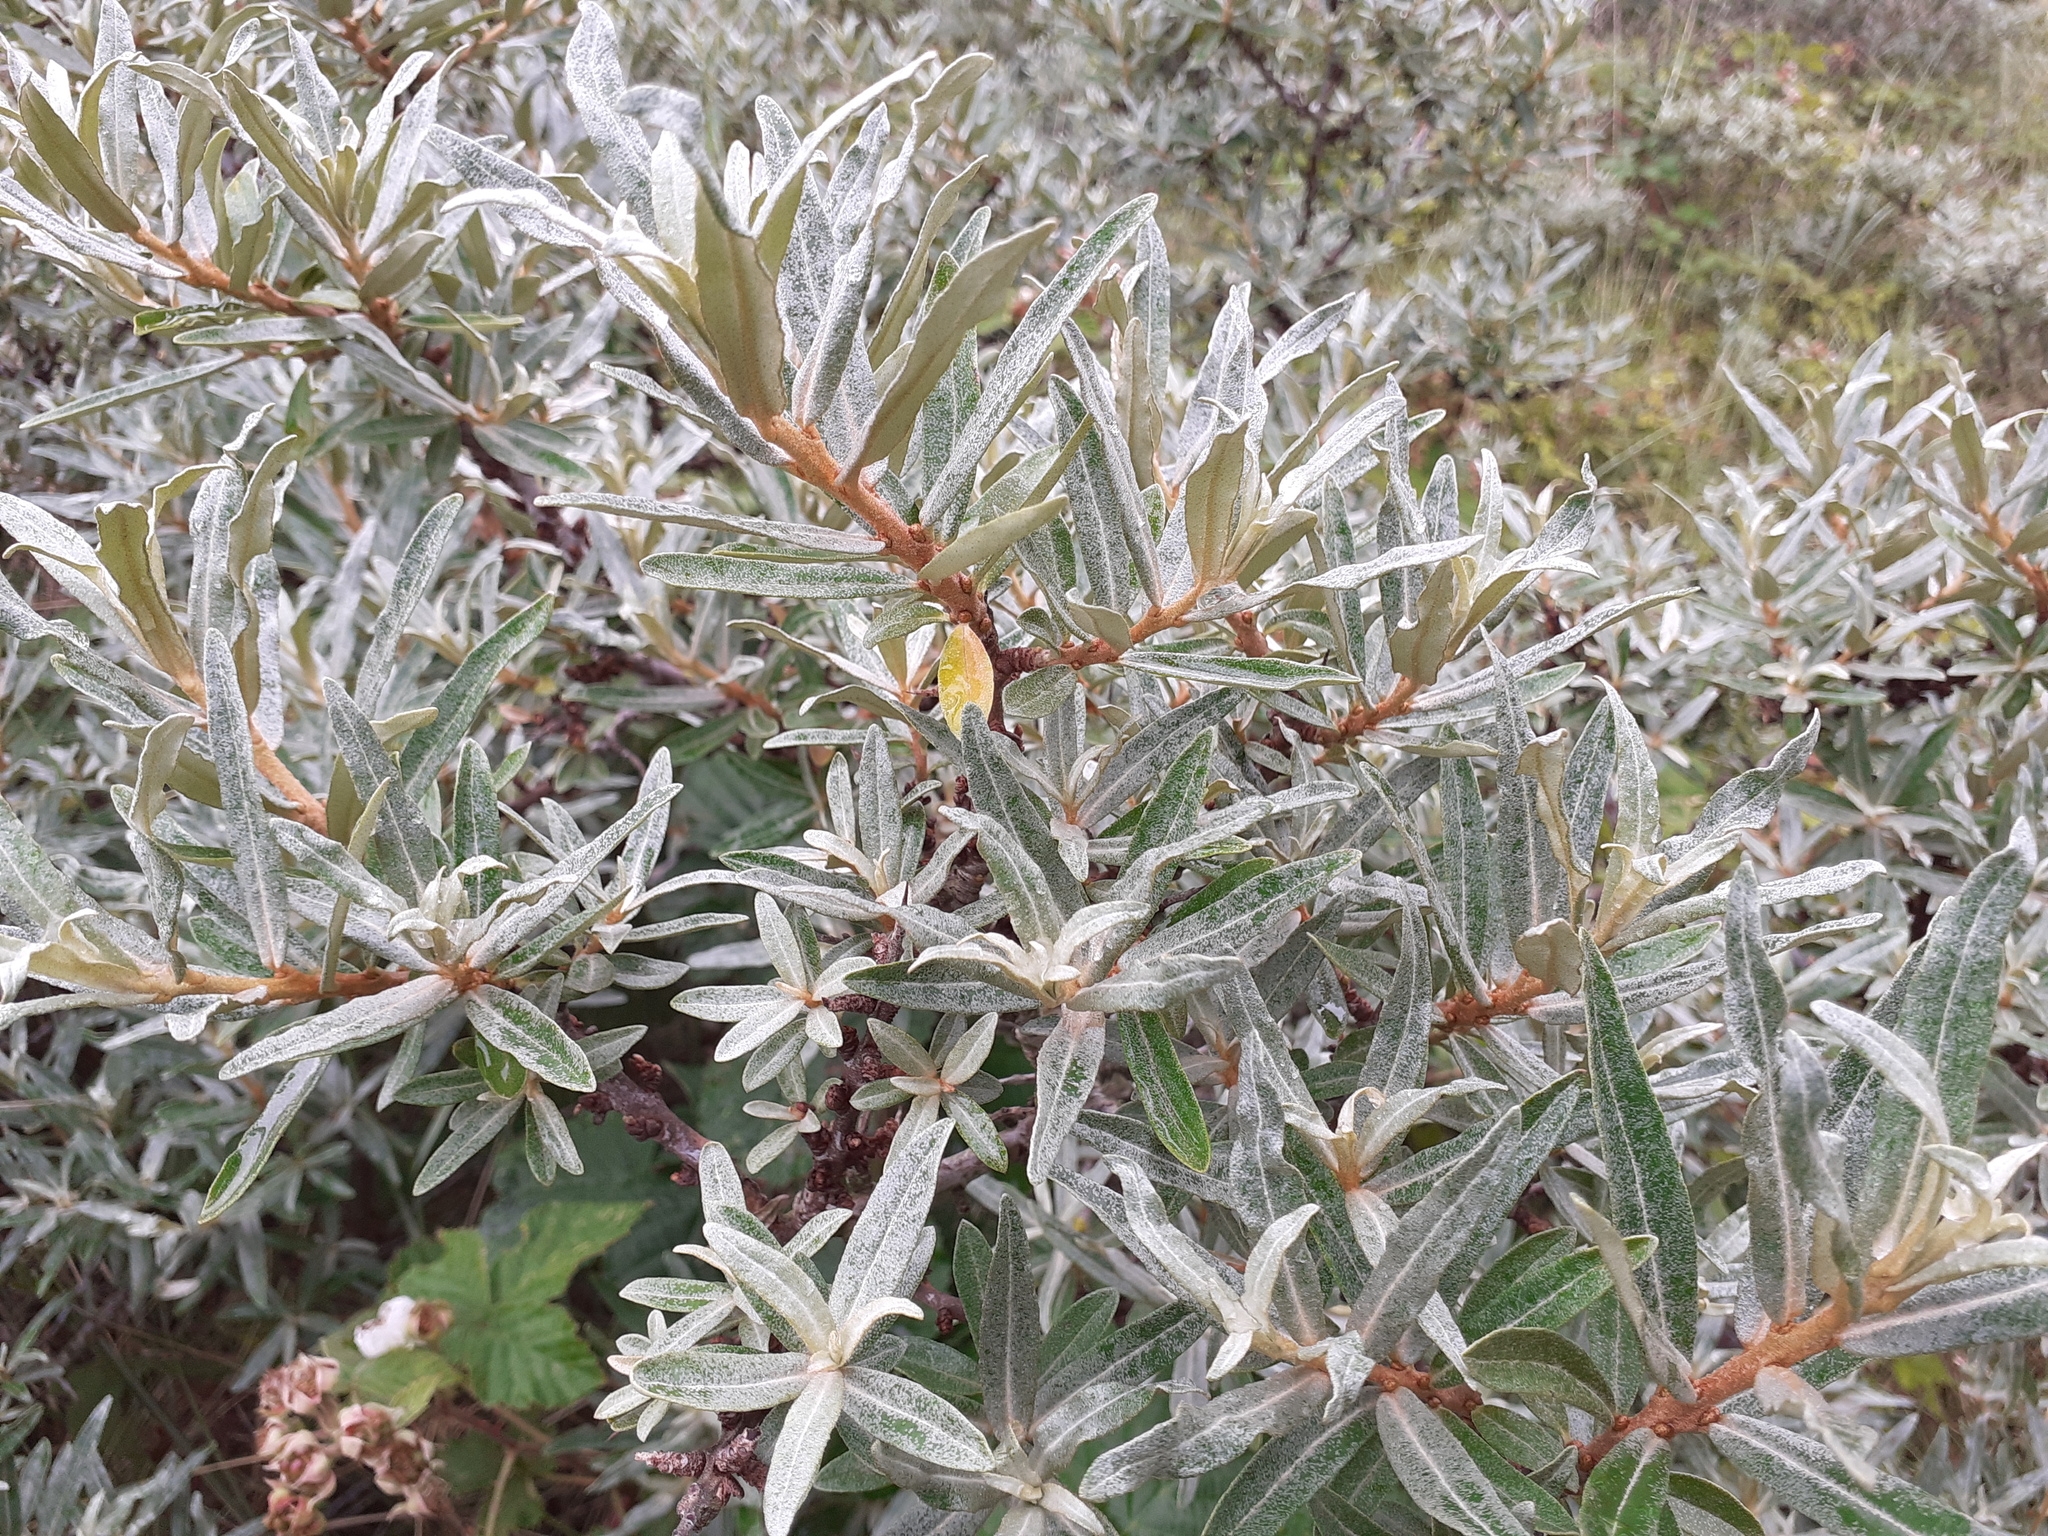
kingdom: Plantae
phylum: Tracheophyta
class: Magnoliopsida
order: Rosales
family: Elaeagnaceae
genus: Hippophae
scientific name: Hippophae rhamnoides
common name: Sea-buckthorn
